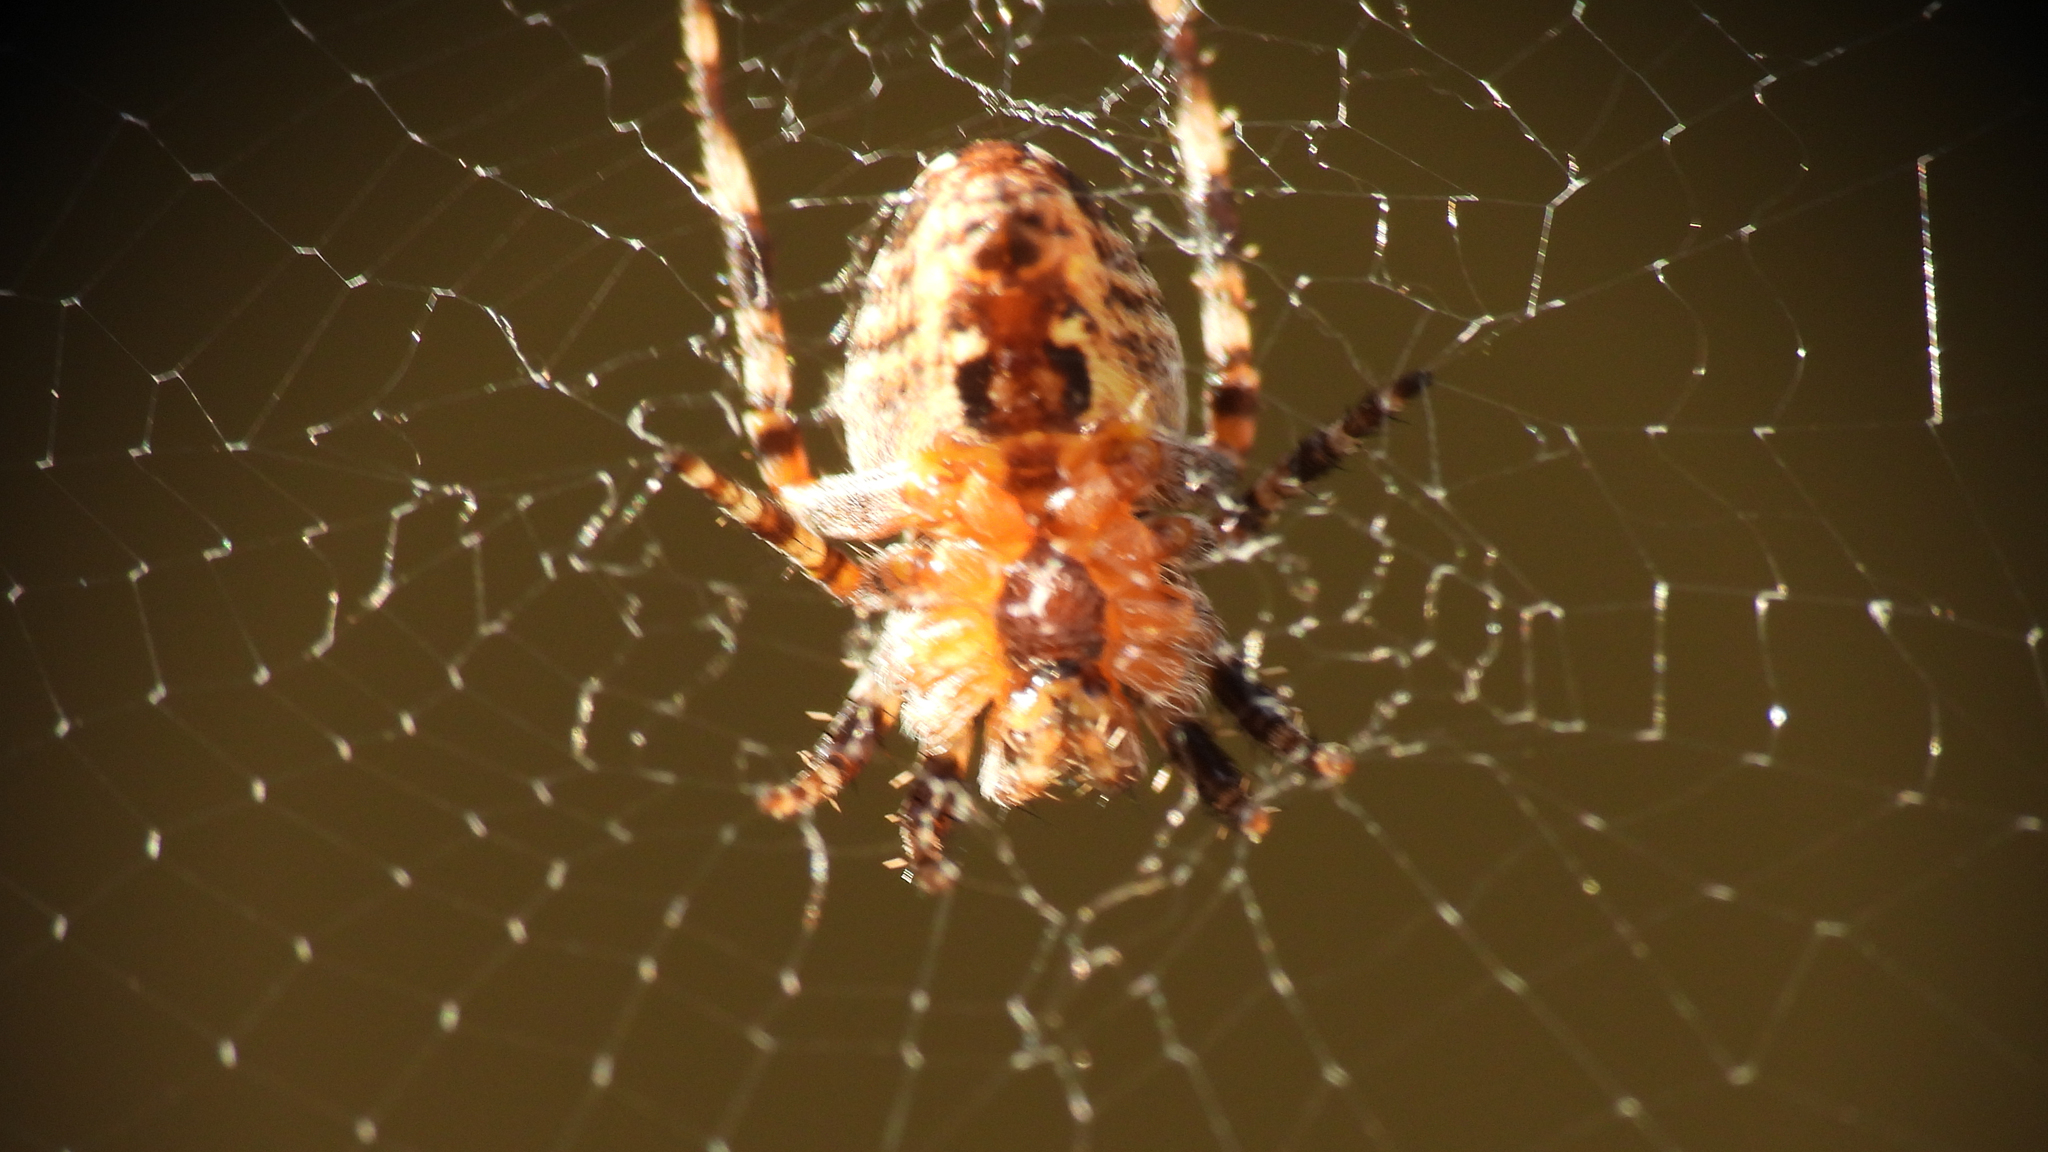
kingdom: Animalia
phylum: Arthropoda
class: Arachnida
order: Araneae
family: Araneidae
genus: Araneus
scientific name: Araneus diadematus
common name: Cross orbweaver
